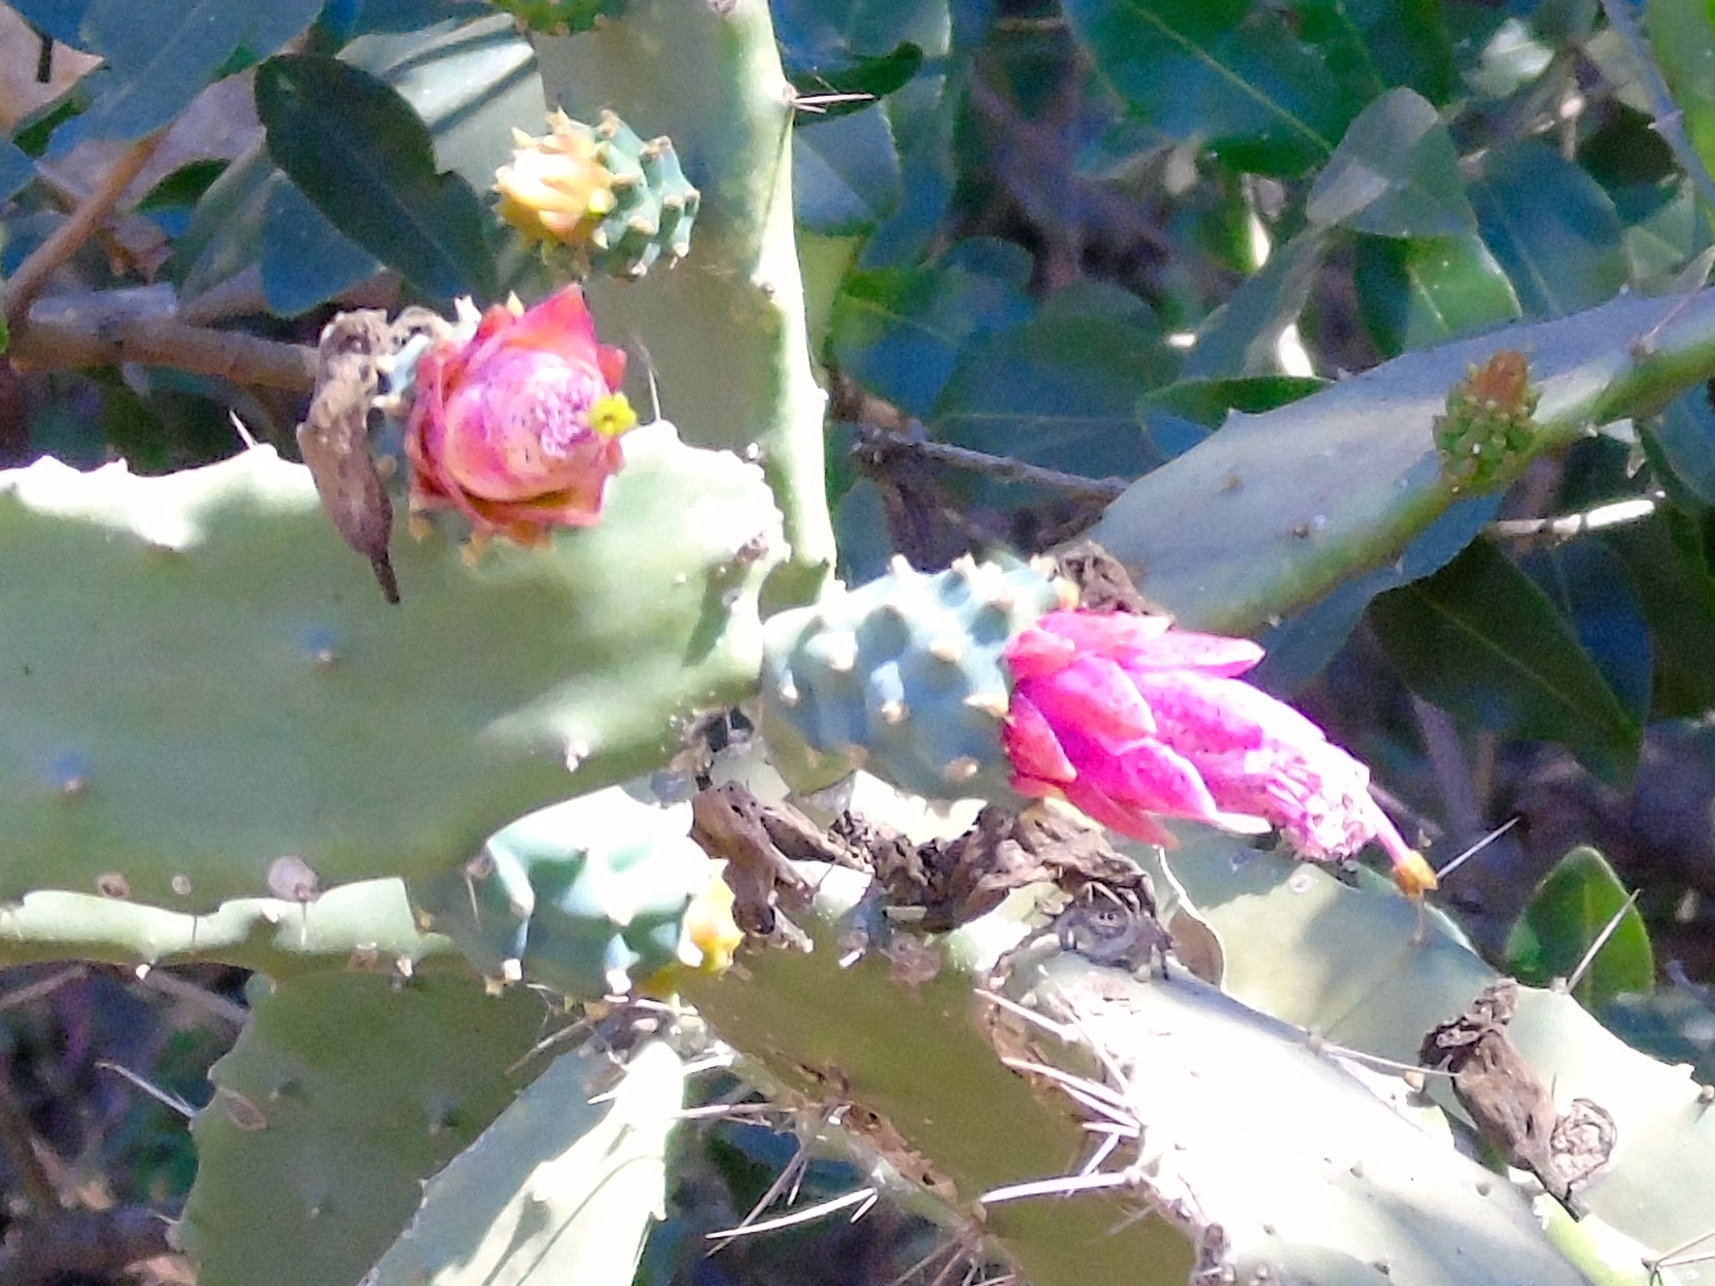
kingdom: Plantae
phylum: Tracheophyta
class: Magnoliopsida
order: Caryophyllales
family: Cactaceae
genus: Nopalea
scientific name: Nopalea
